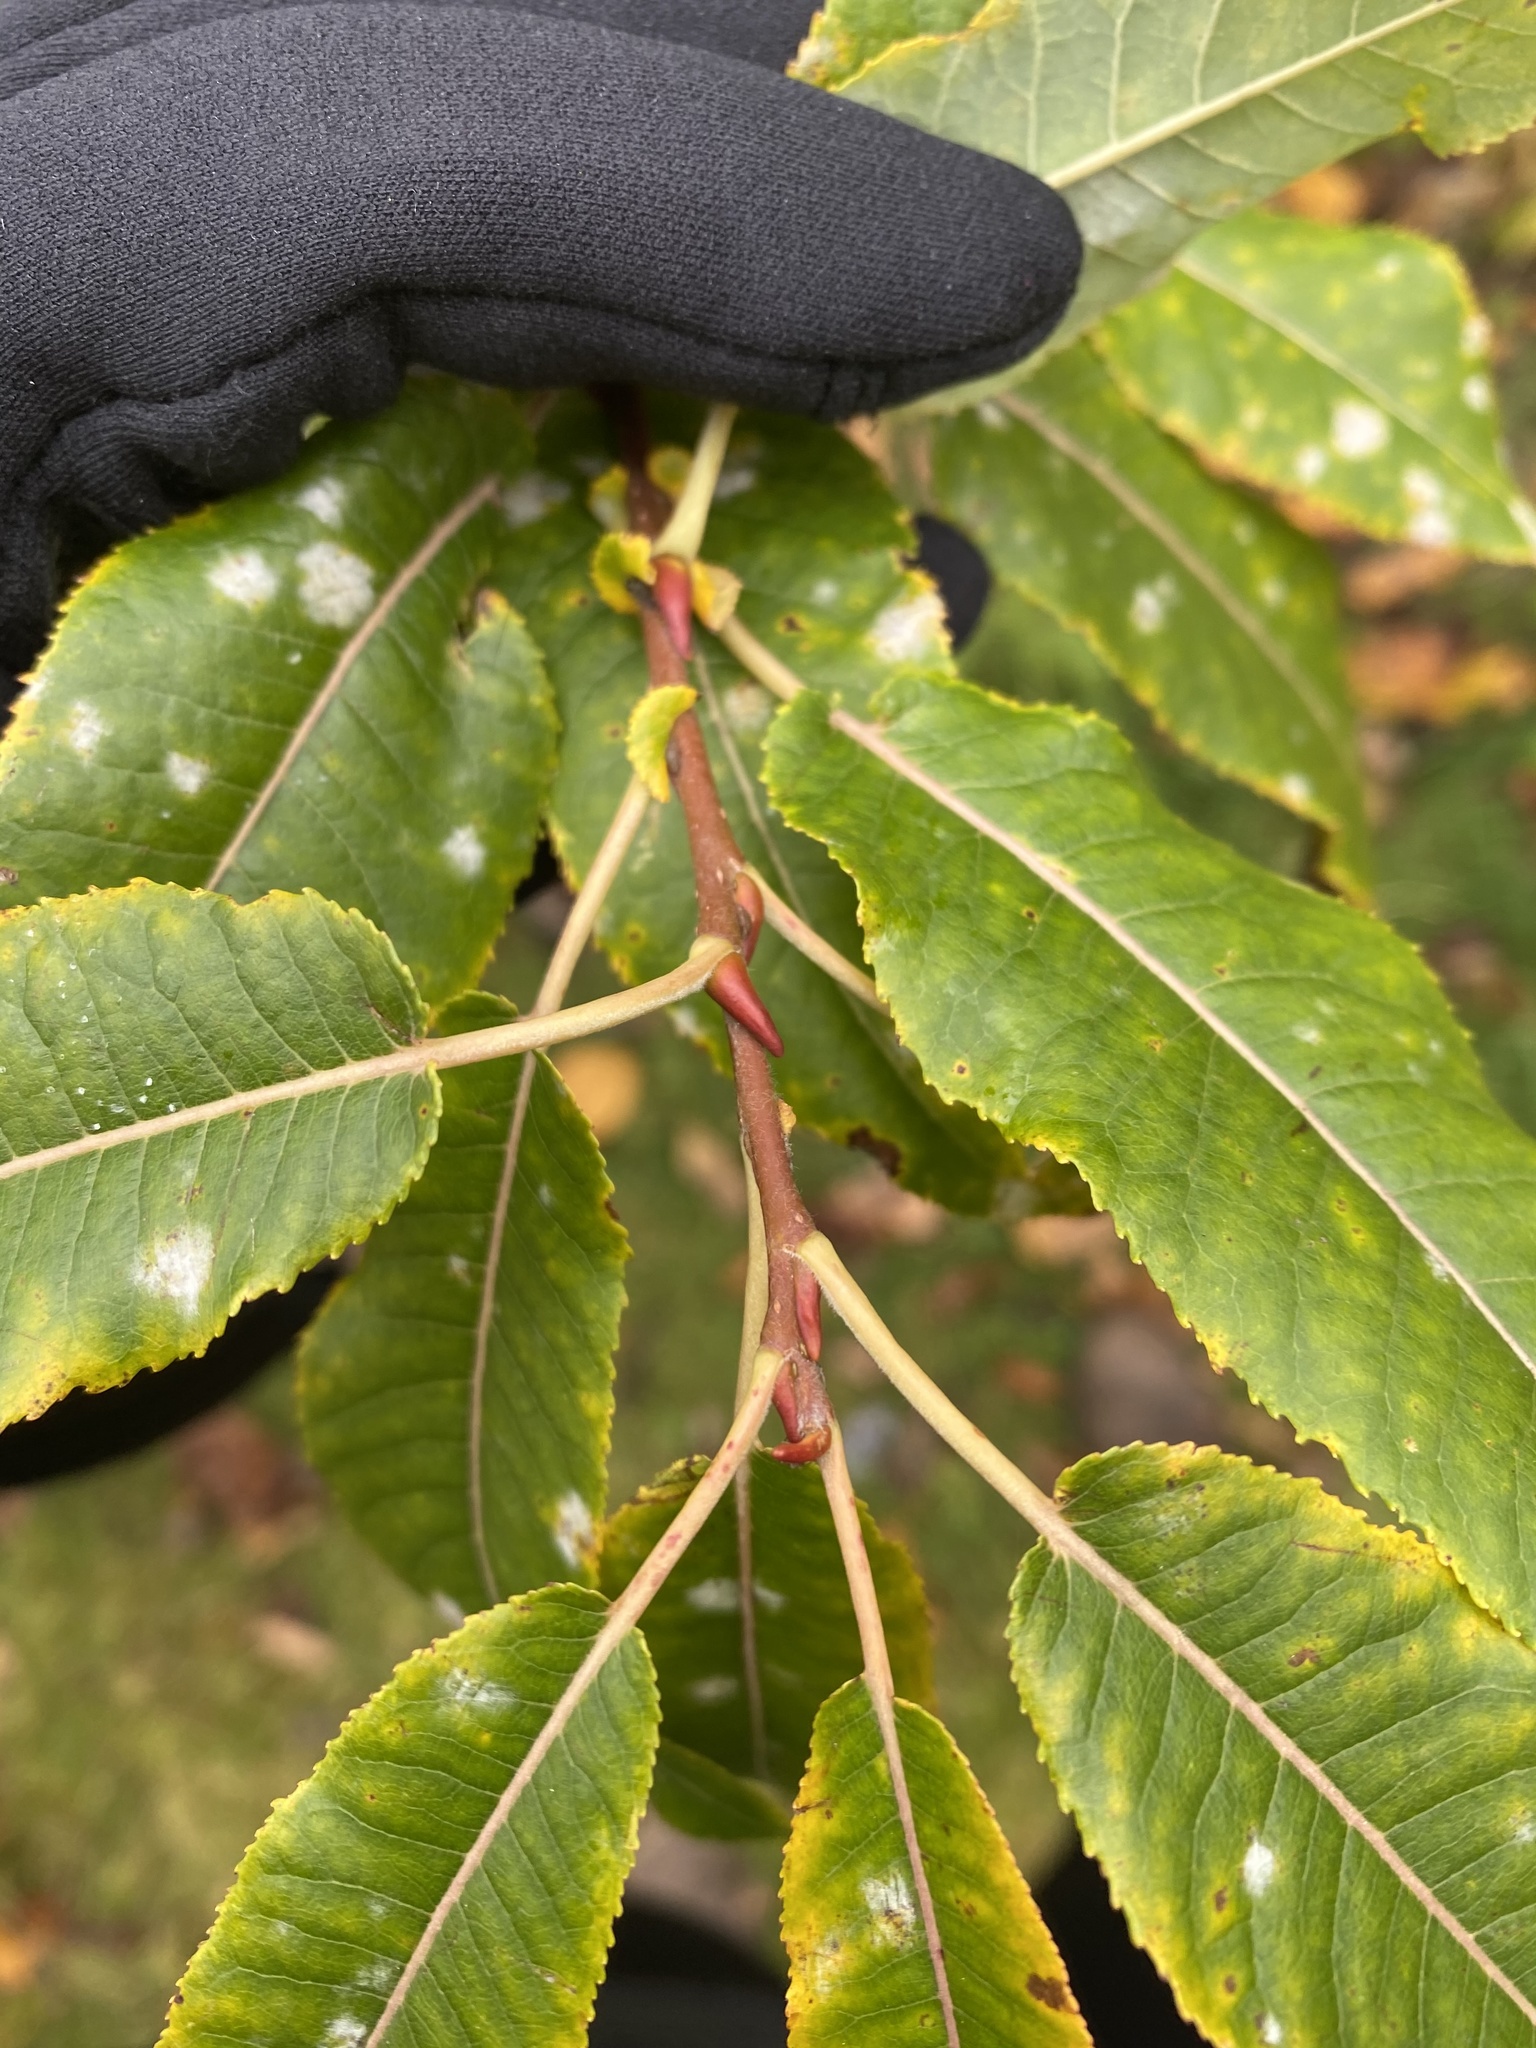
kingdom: Plantae
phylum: Tracheophyta
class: Magnoliopsida
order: Malpighiales
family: Salicaceae
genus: Salix
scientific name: Salix eriocephala
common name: Heart-leaved willow
